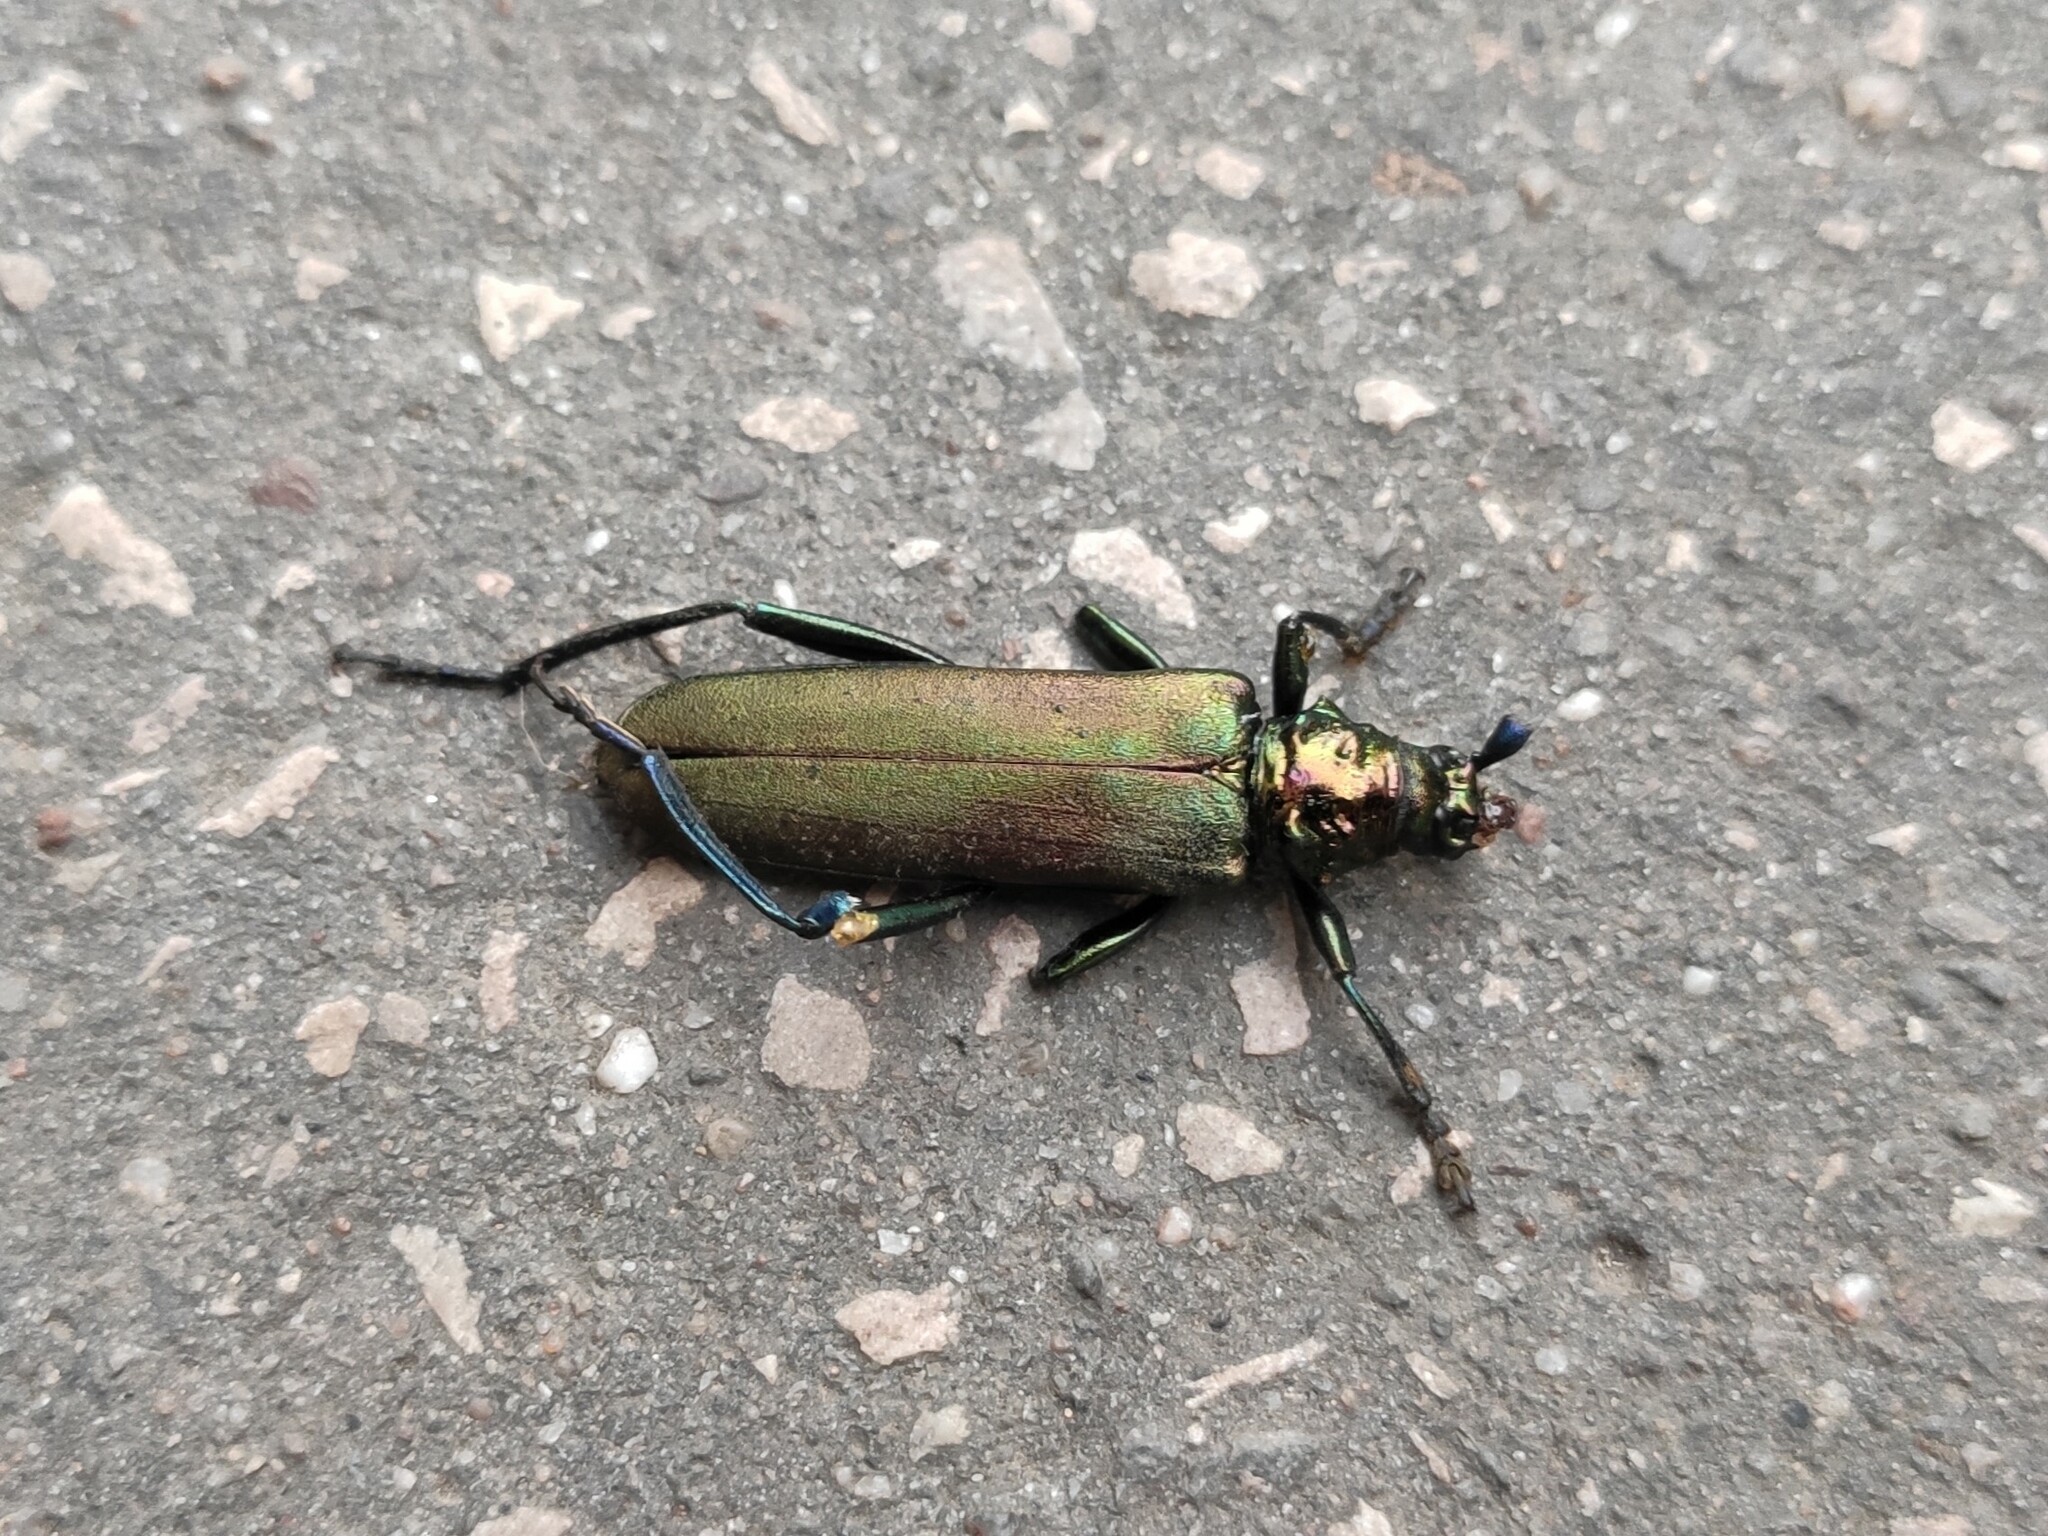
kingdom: Animalia
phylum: Arthropoda
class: Insecta
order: Coleoptera
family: Cerambycidae
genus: Aromia
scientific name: Aromia moschata
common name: Musk beetle
